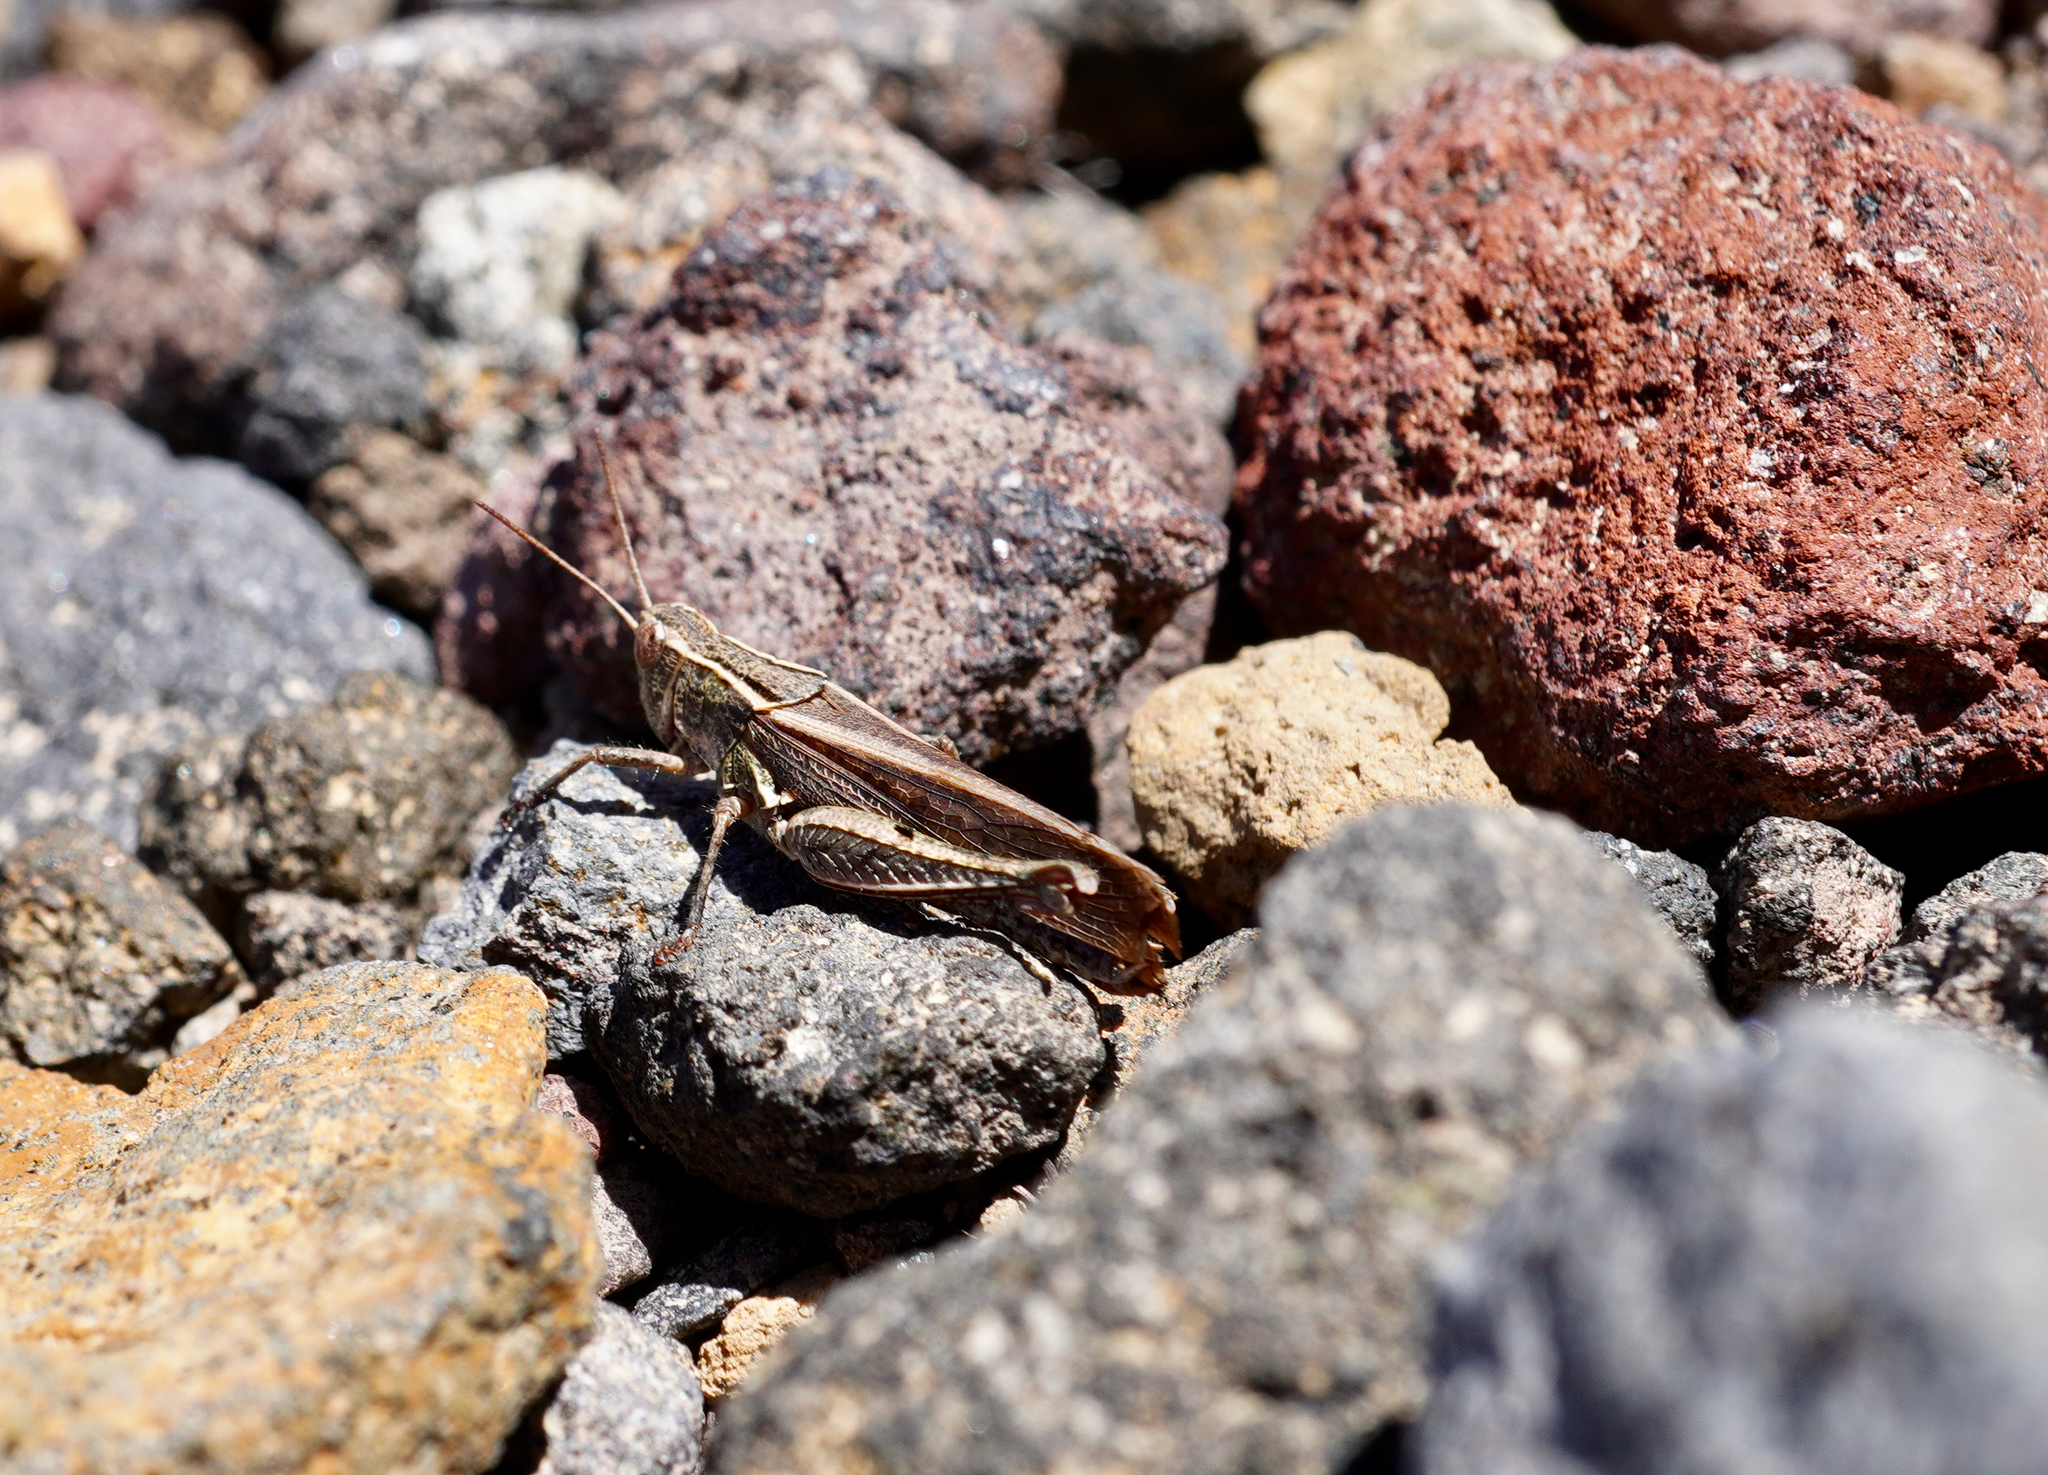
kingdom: Animalia
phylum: Arthropoda
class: Insecta
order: Orthoptera
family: Acrididae
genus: Phaulacridium
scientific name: Phaulacridium marginale
